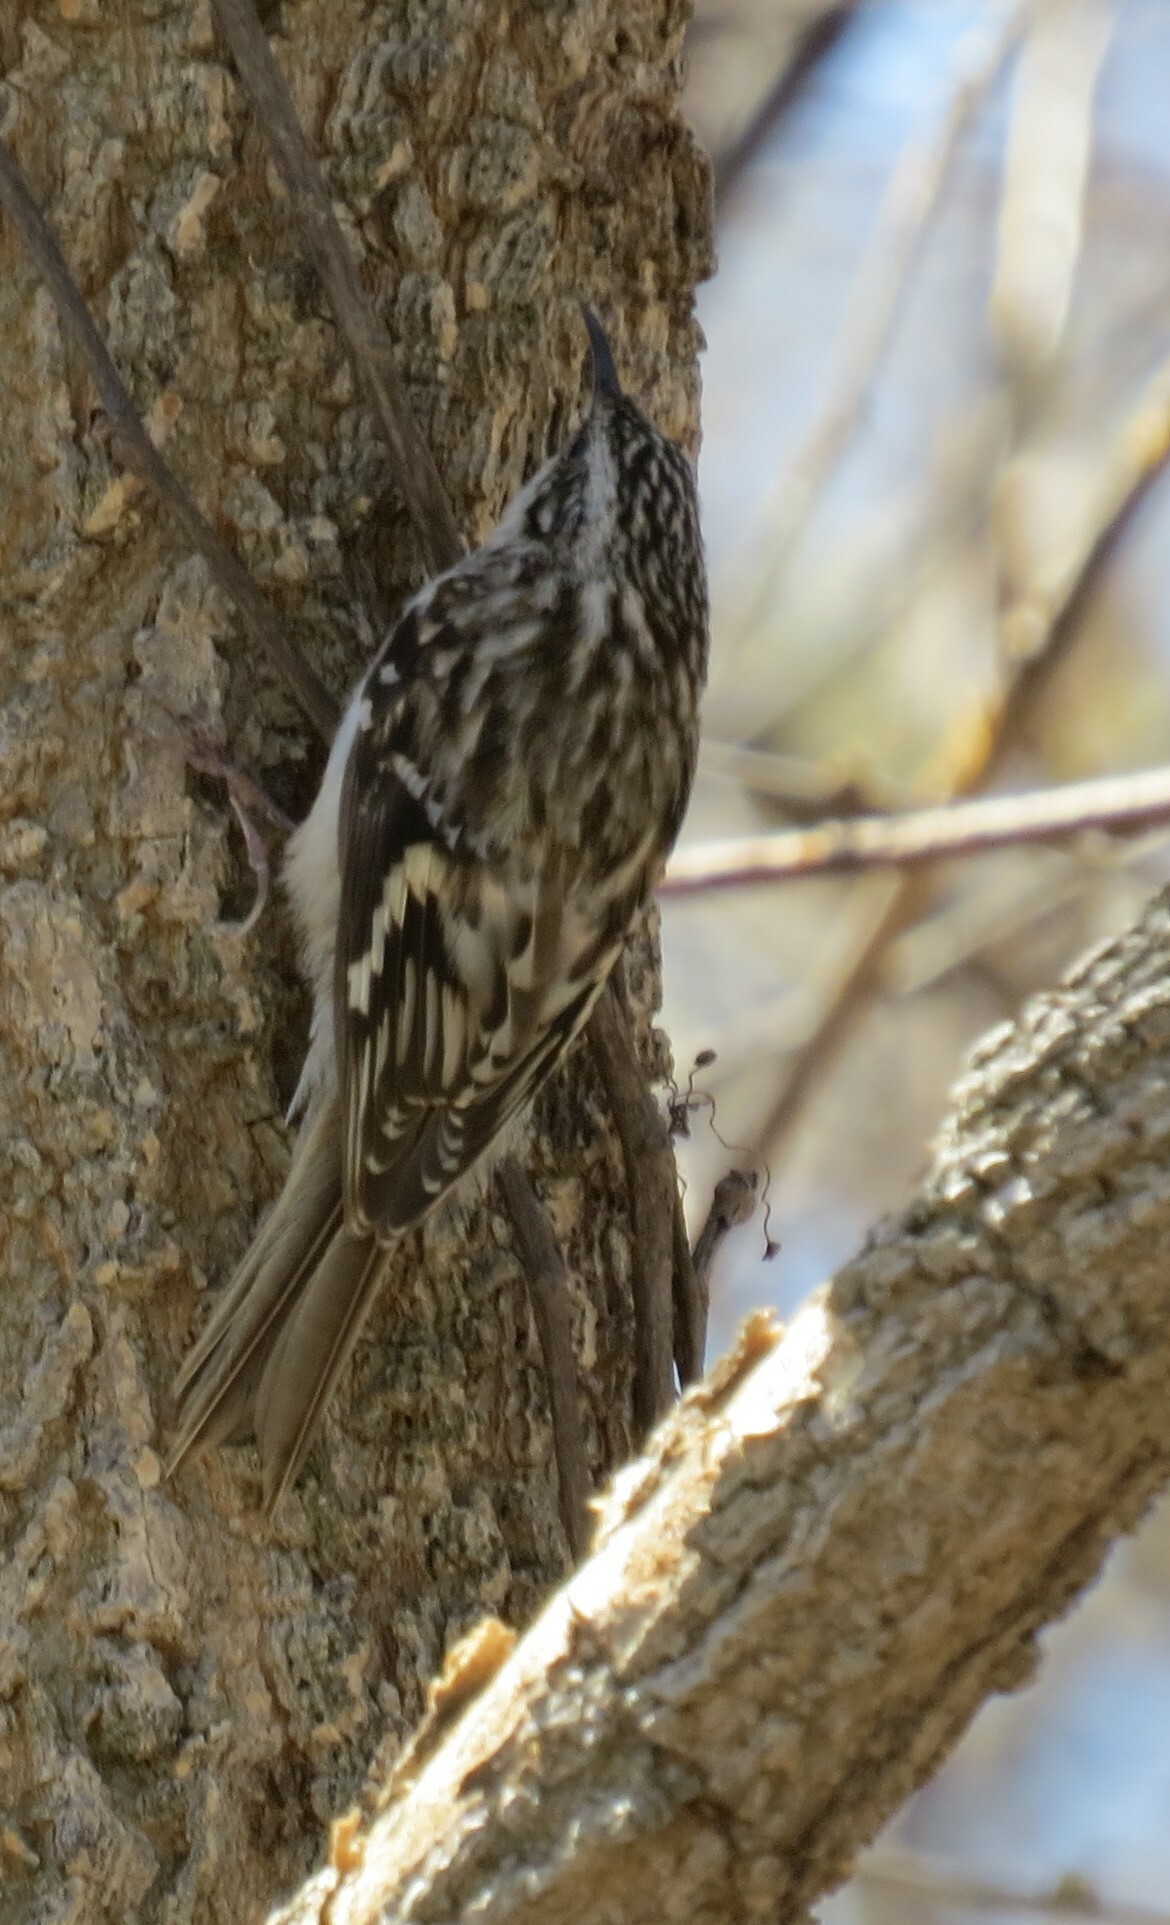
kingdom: Animalia
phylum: Chordata
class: Aves
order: Passeriformes
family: Certhiidae
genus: Certhia
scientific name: Certhia americana
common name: Brown creeper
